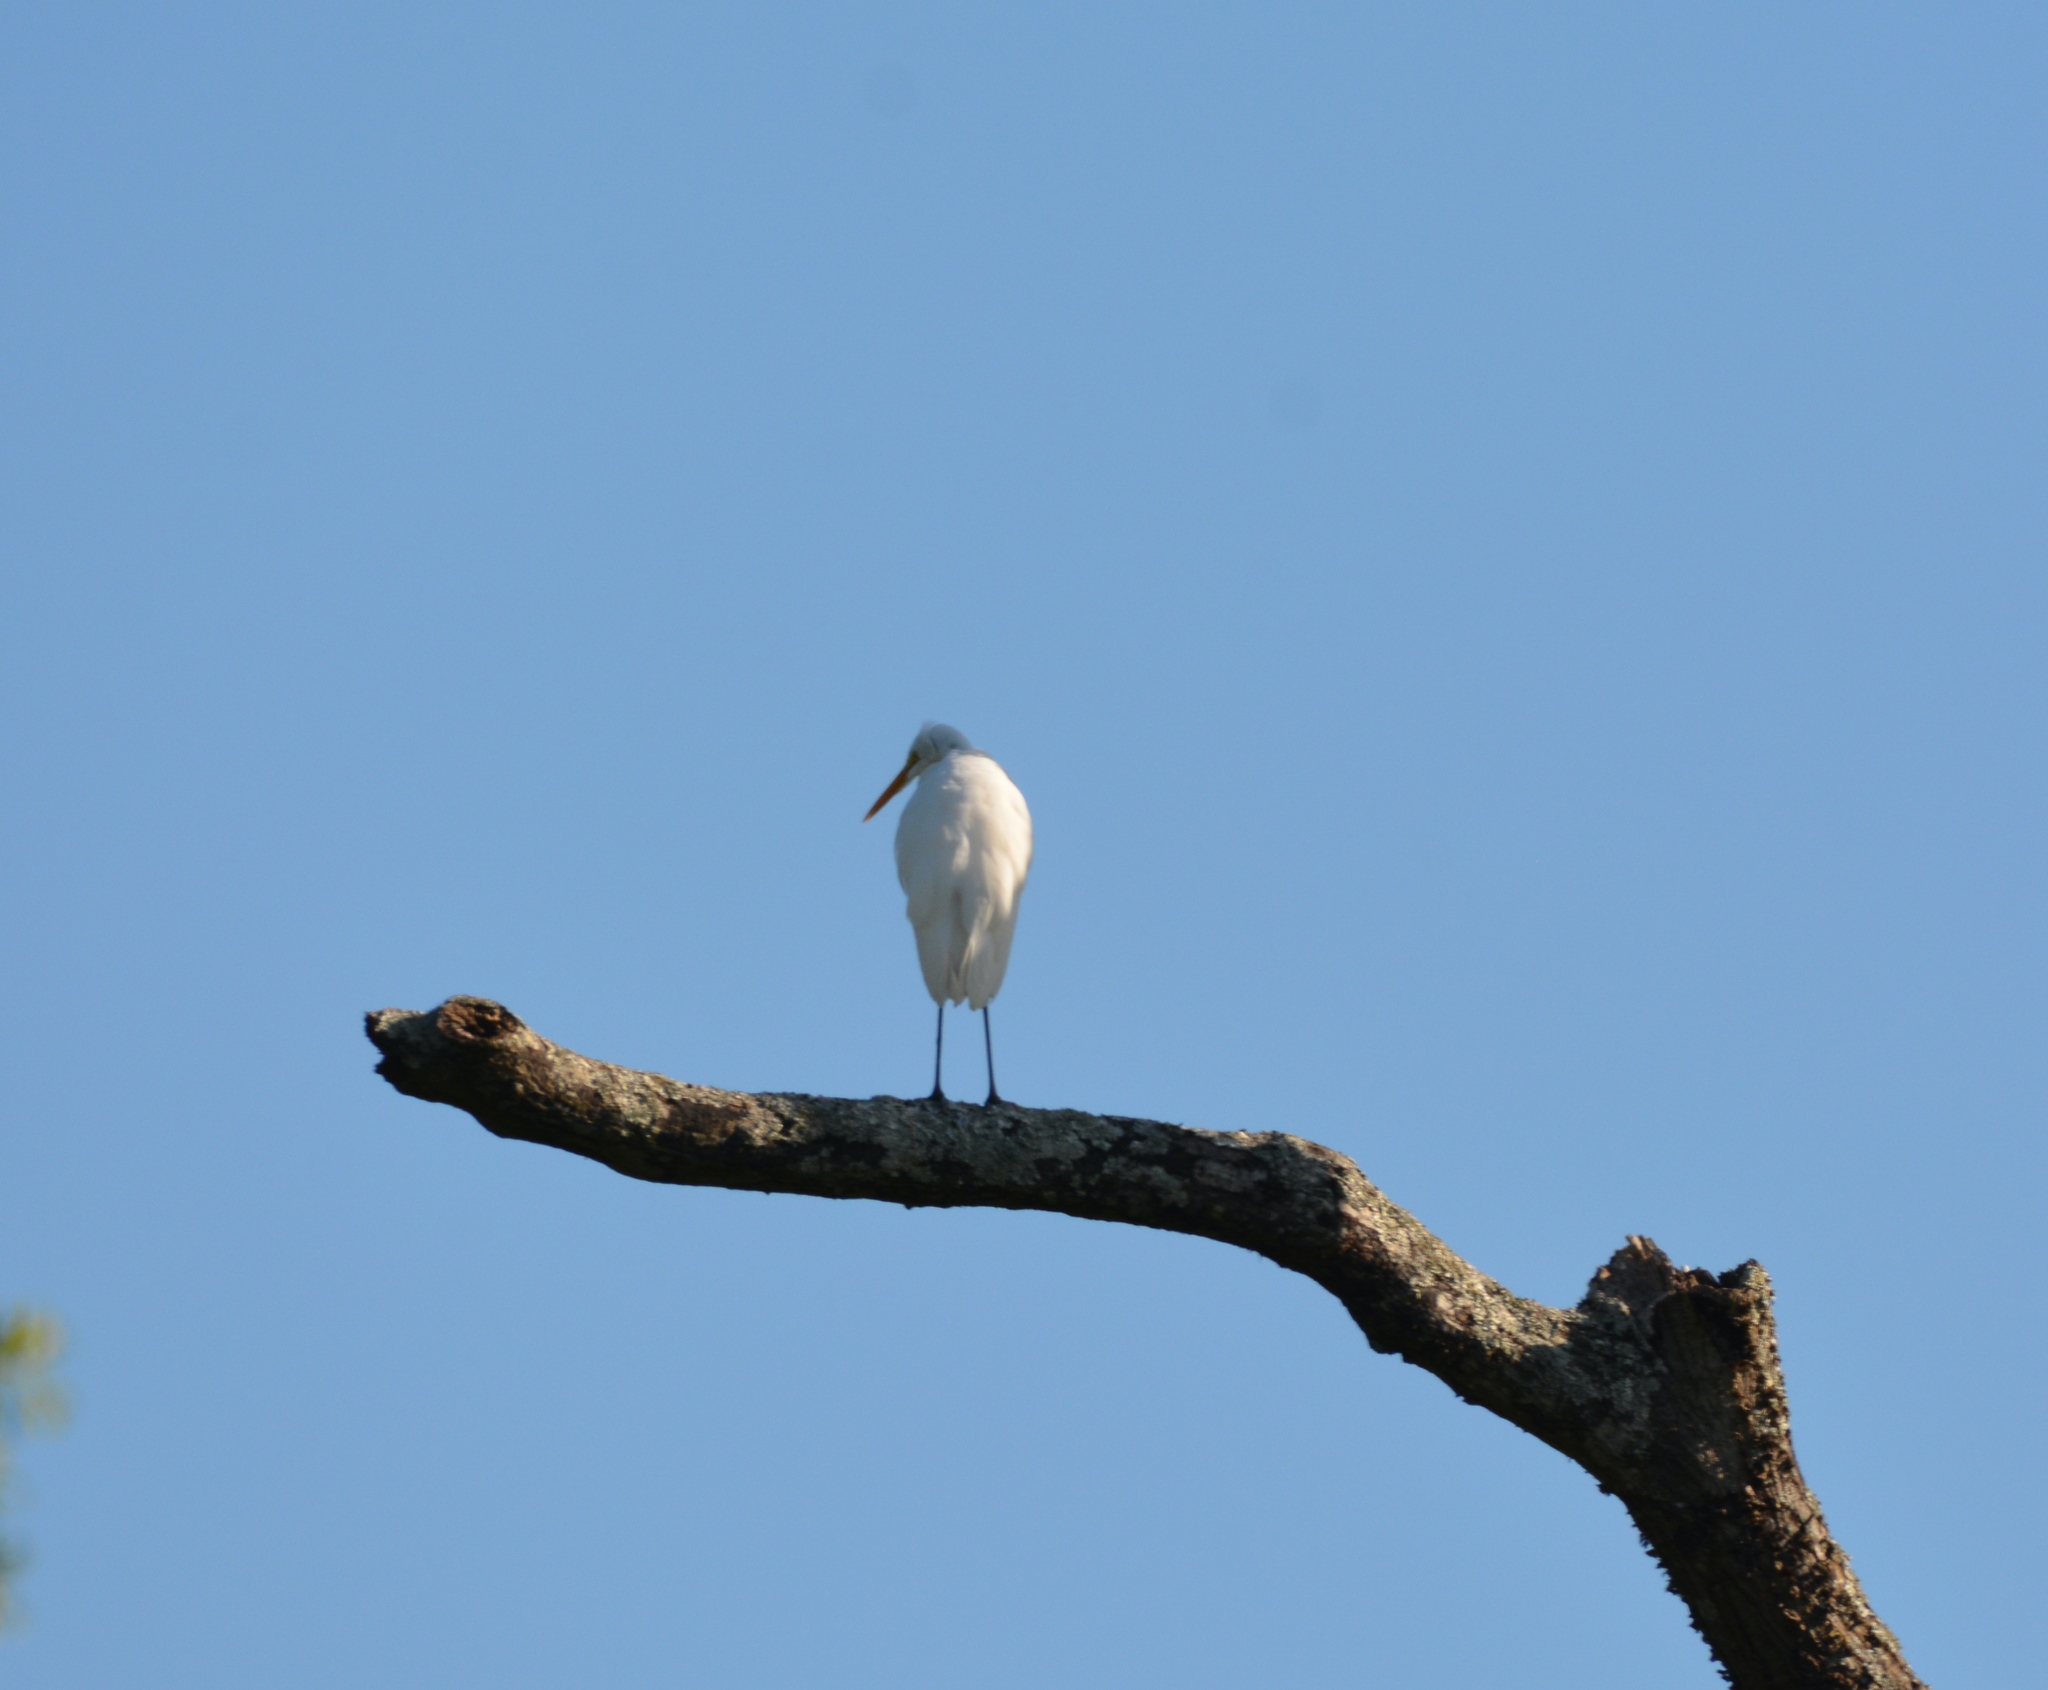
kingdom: Animalia
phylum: Chordata
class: Aves
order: Pelecaniformes
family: Ardeidae
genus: Ardea
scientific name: Ardea alba
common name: Great egret
